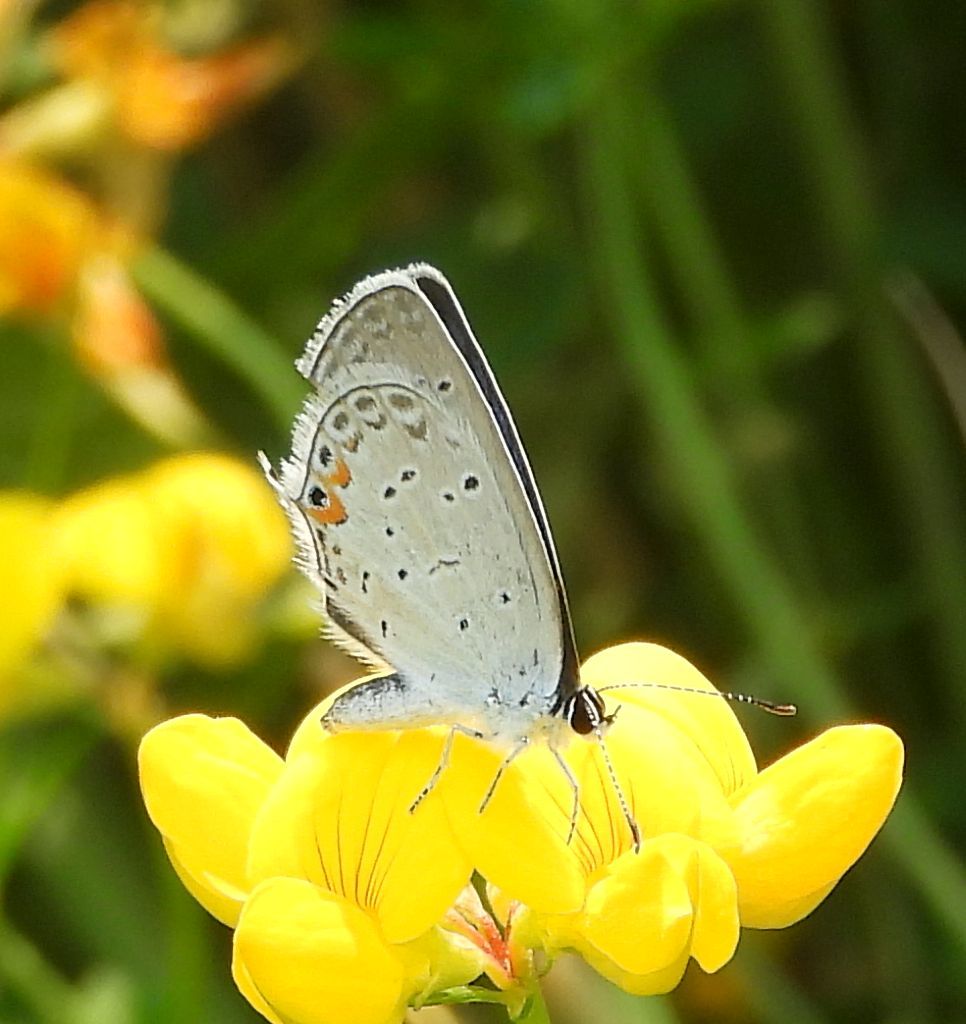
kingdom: Animalia
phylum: Arthropoda
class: Insecta
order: Lepidoptera
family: Lycaenidae
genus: Elkalyce
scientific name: Elkalyce comyntas
